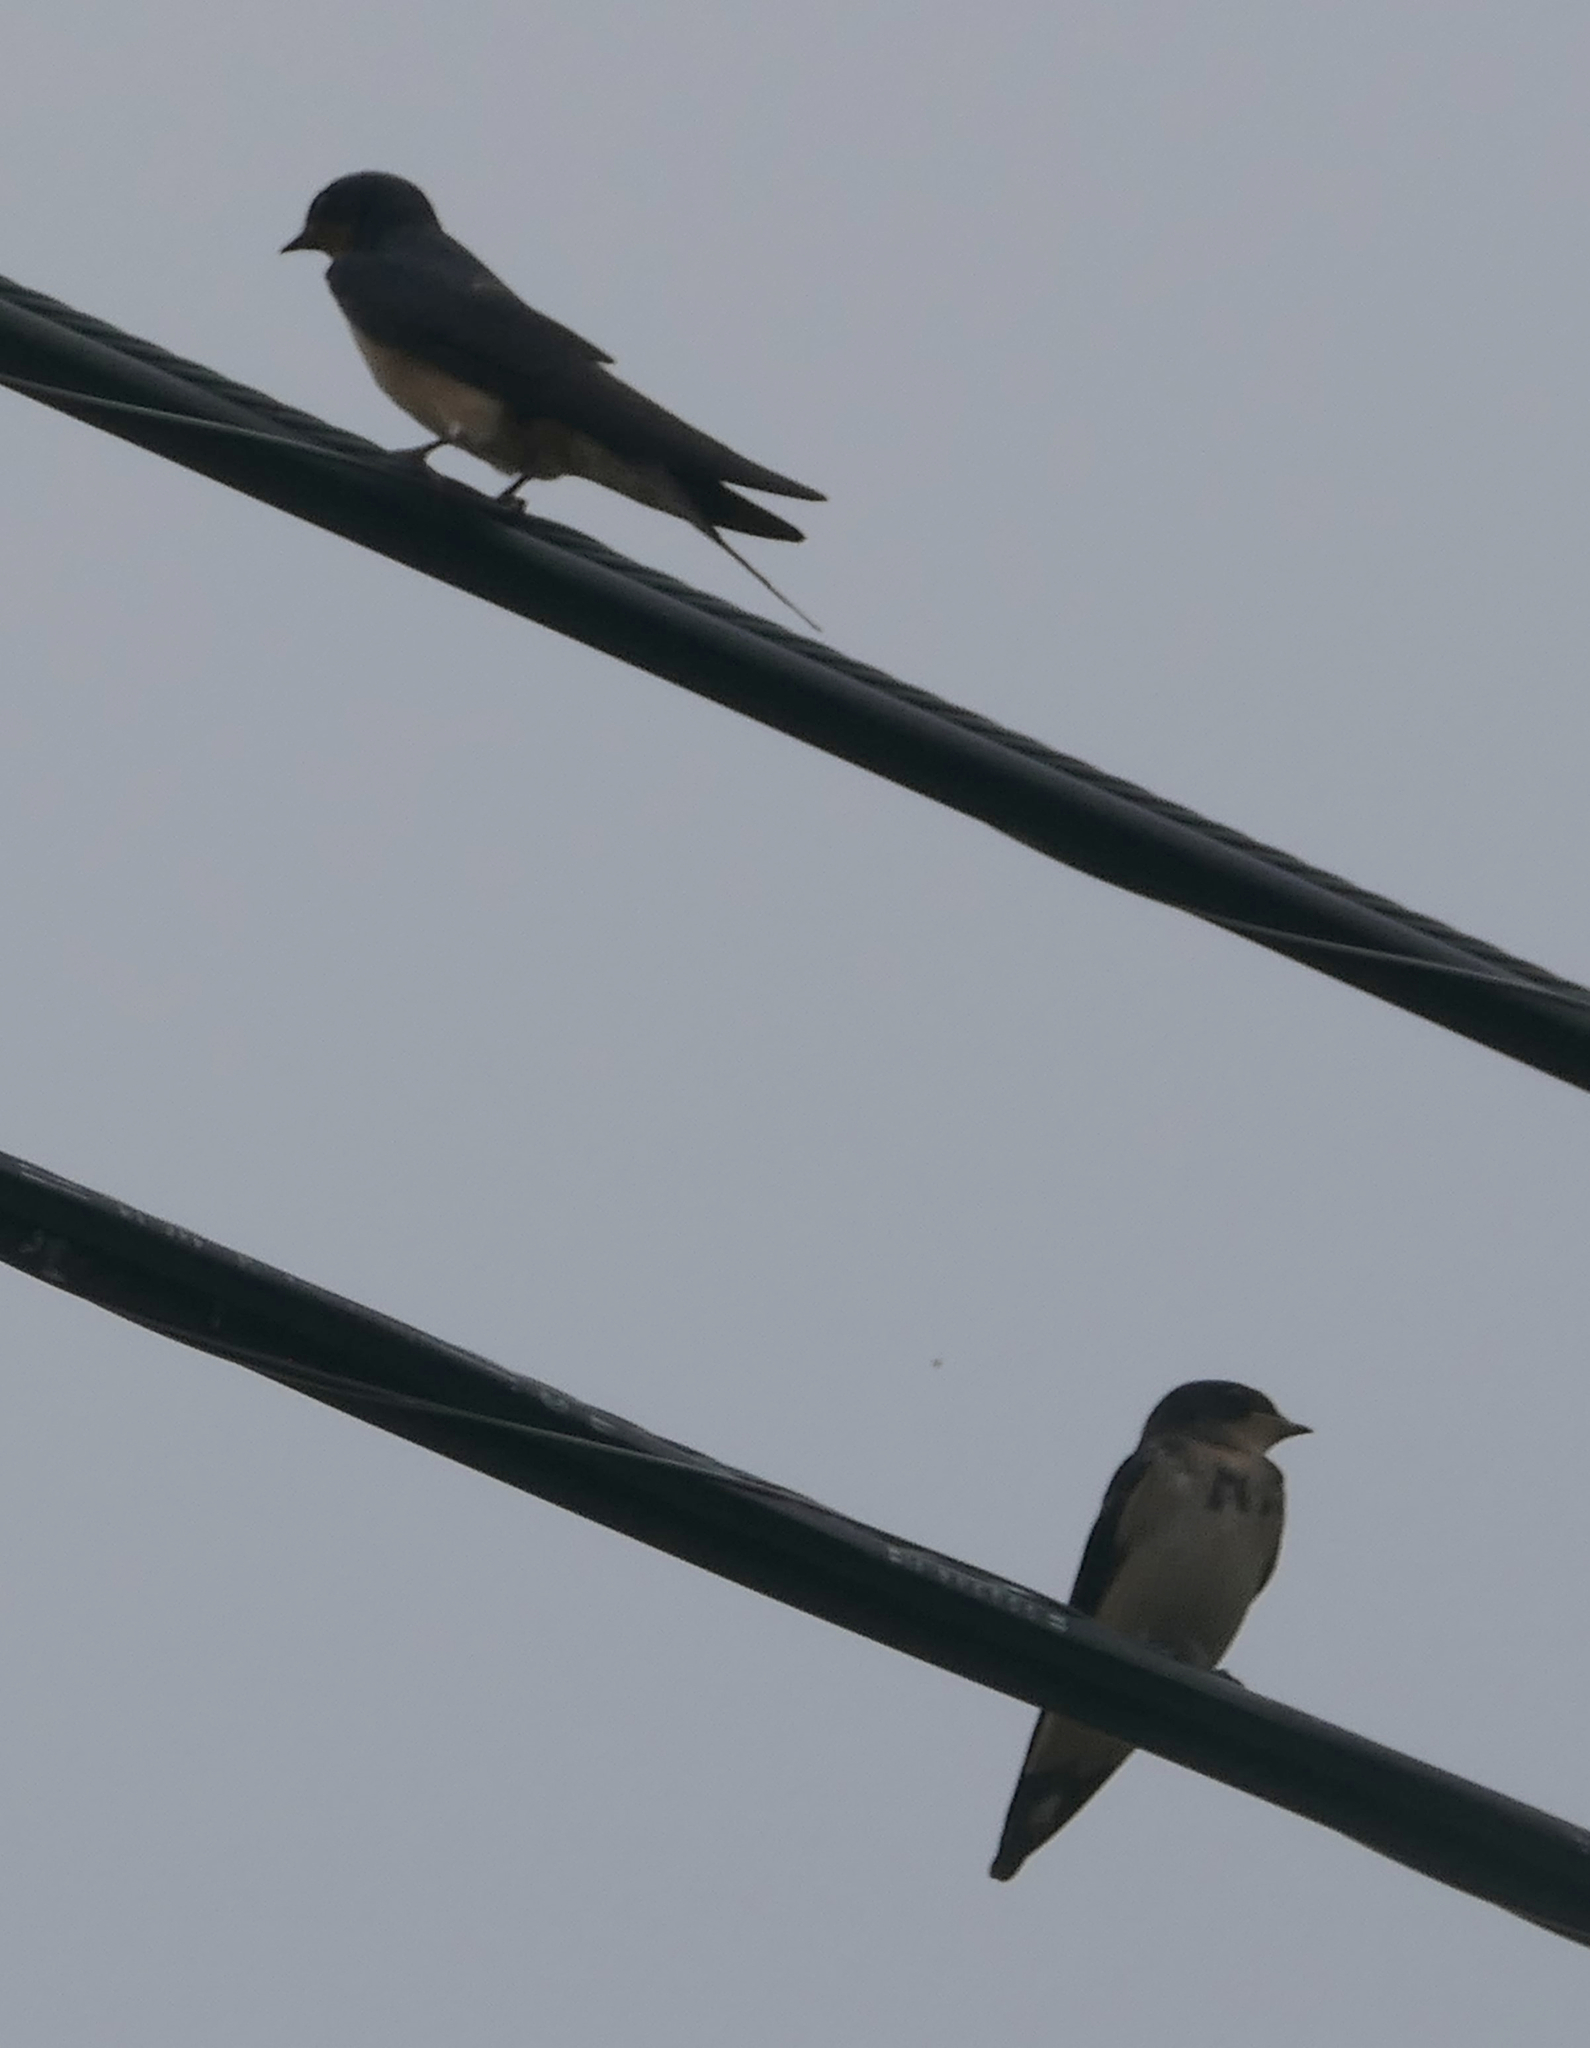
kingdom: Animalia
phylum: Chordata
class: Aves
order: Passeriformes
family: Hirundinidae
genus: Hirundo
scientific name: Hirundo rustica
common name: Barn swallow
